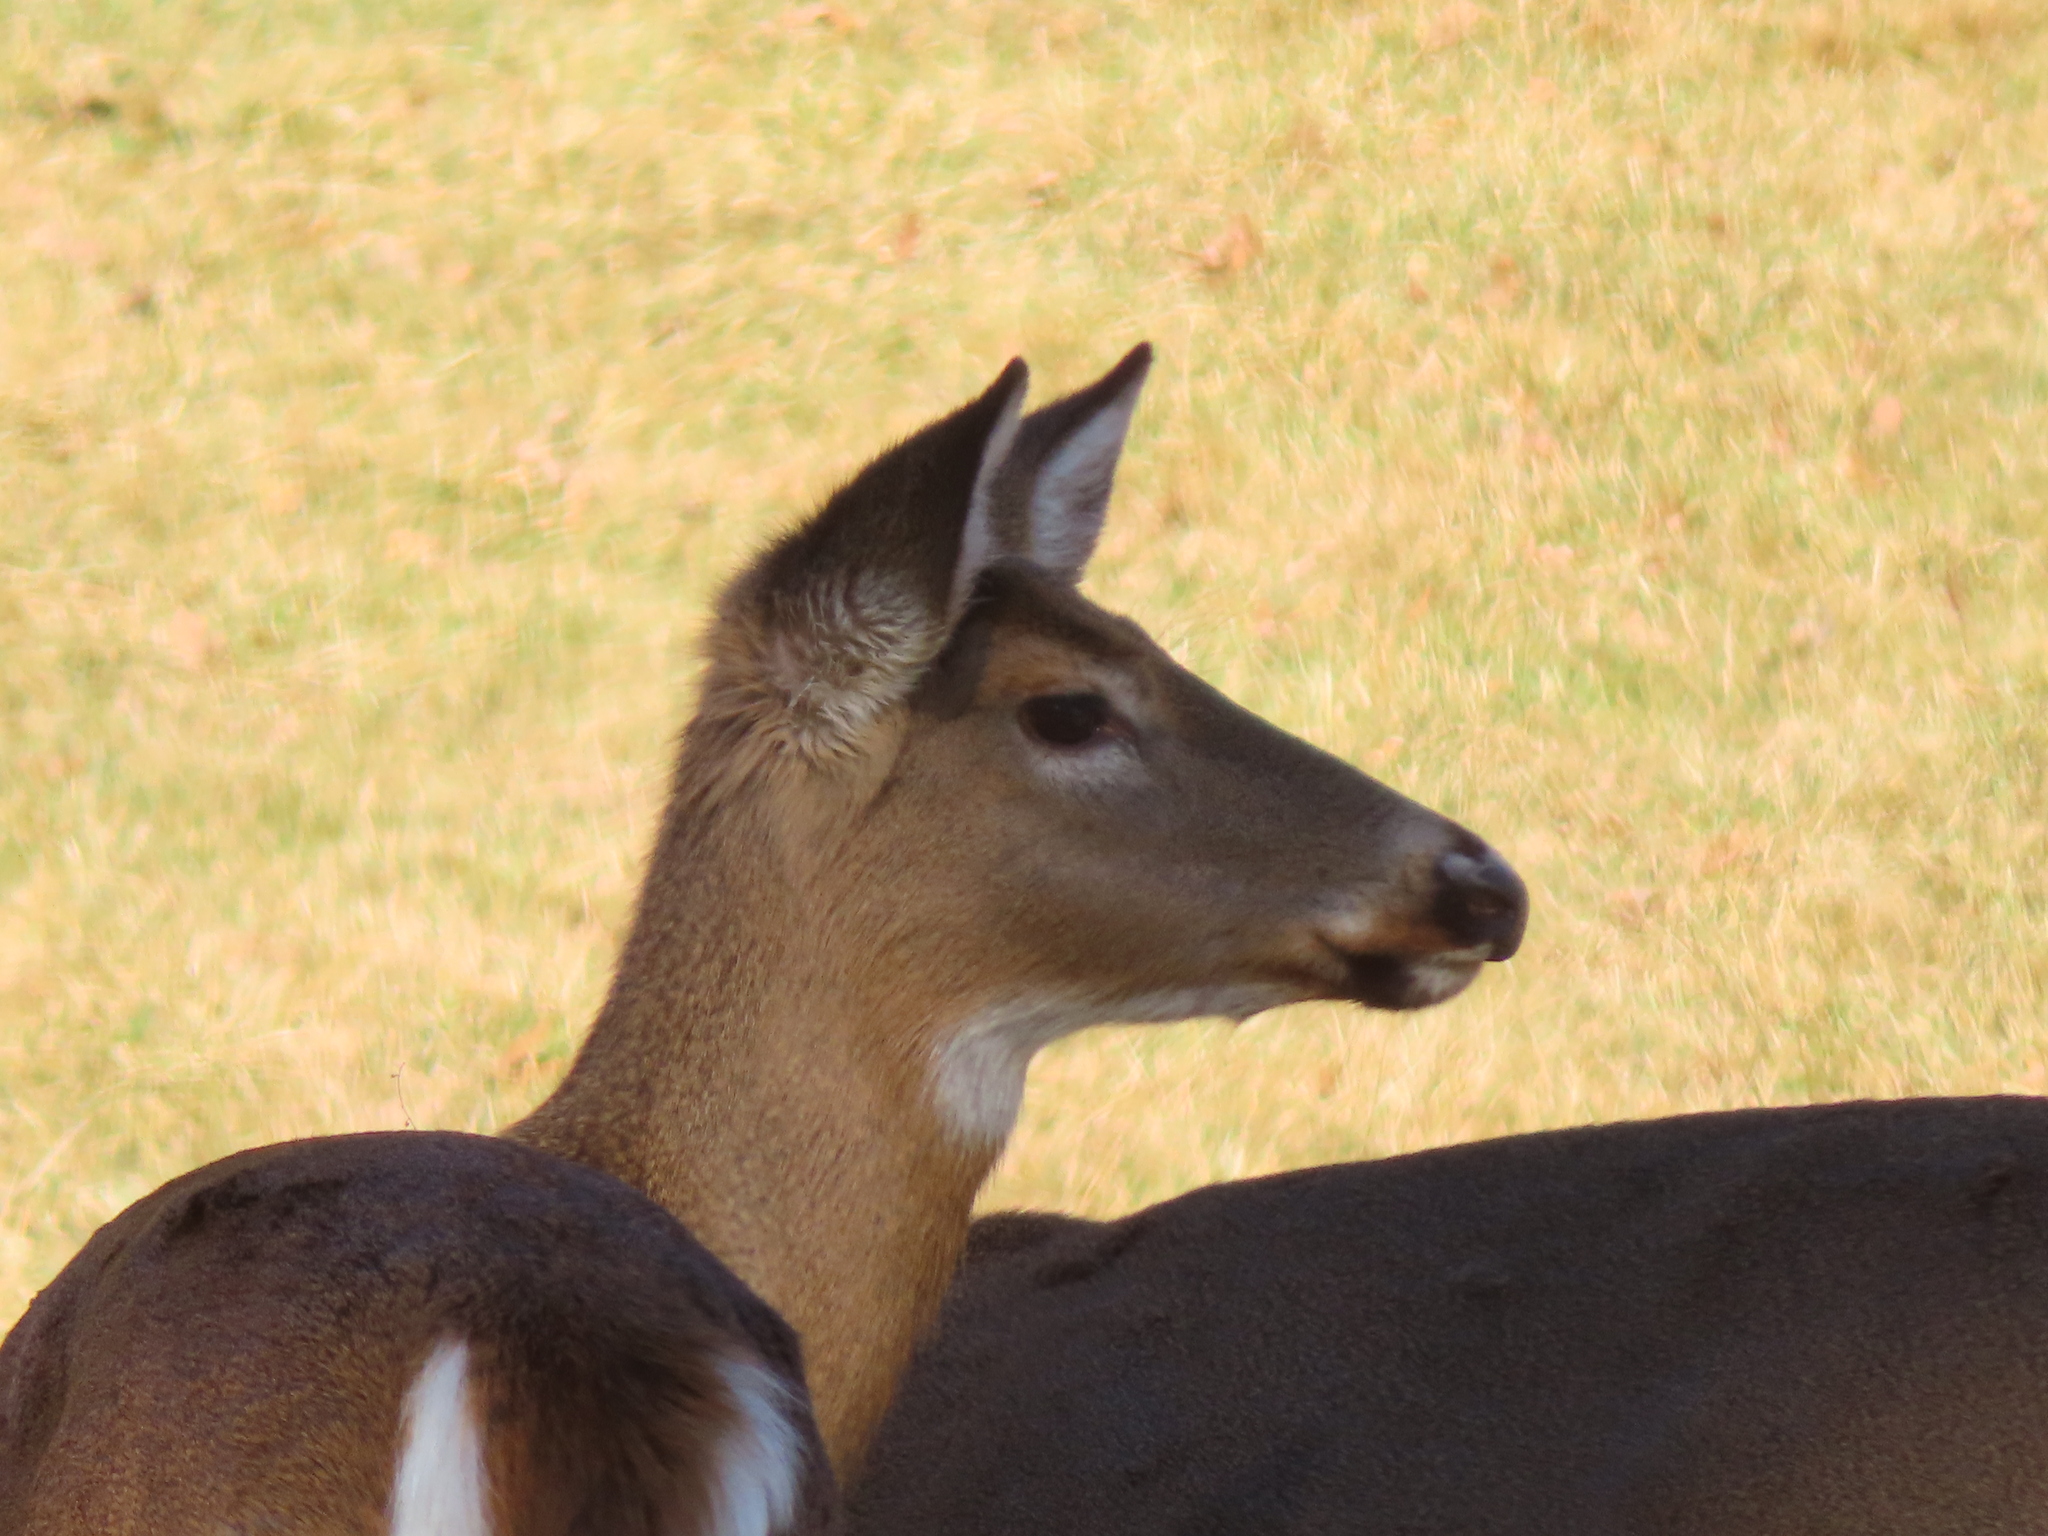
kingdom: Animalia
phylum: Chordata
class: Mammalia
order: Artiodactyla
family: Cervidae
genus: Odocoileus
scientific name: Odocoileus virginianus
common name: White-tailed deer
